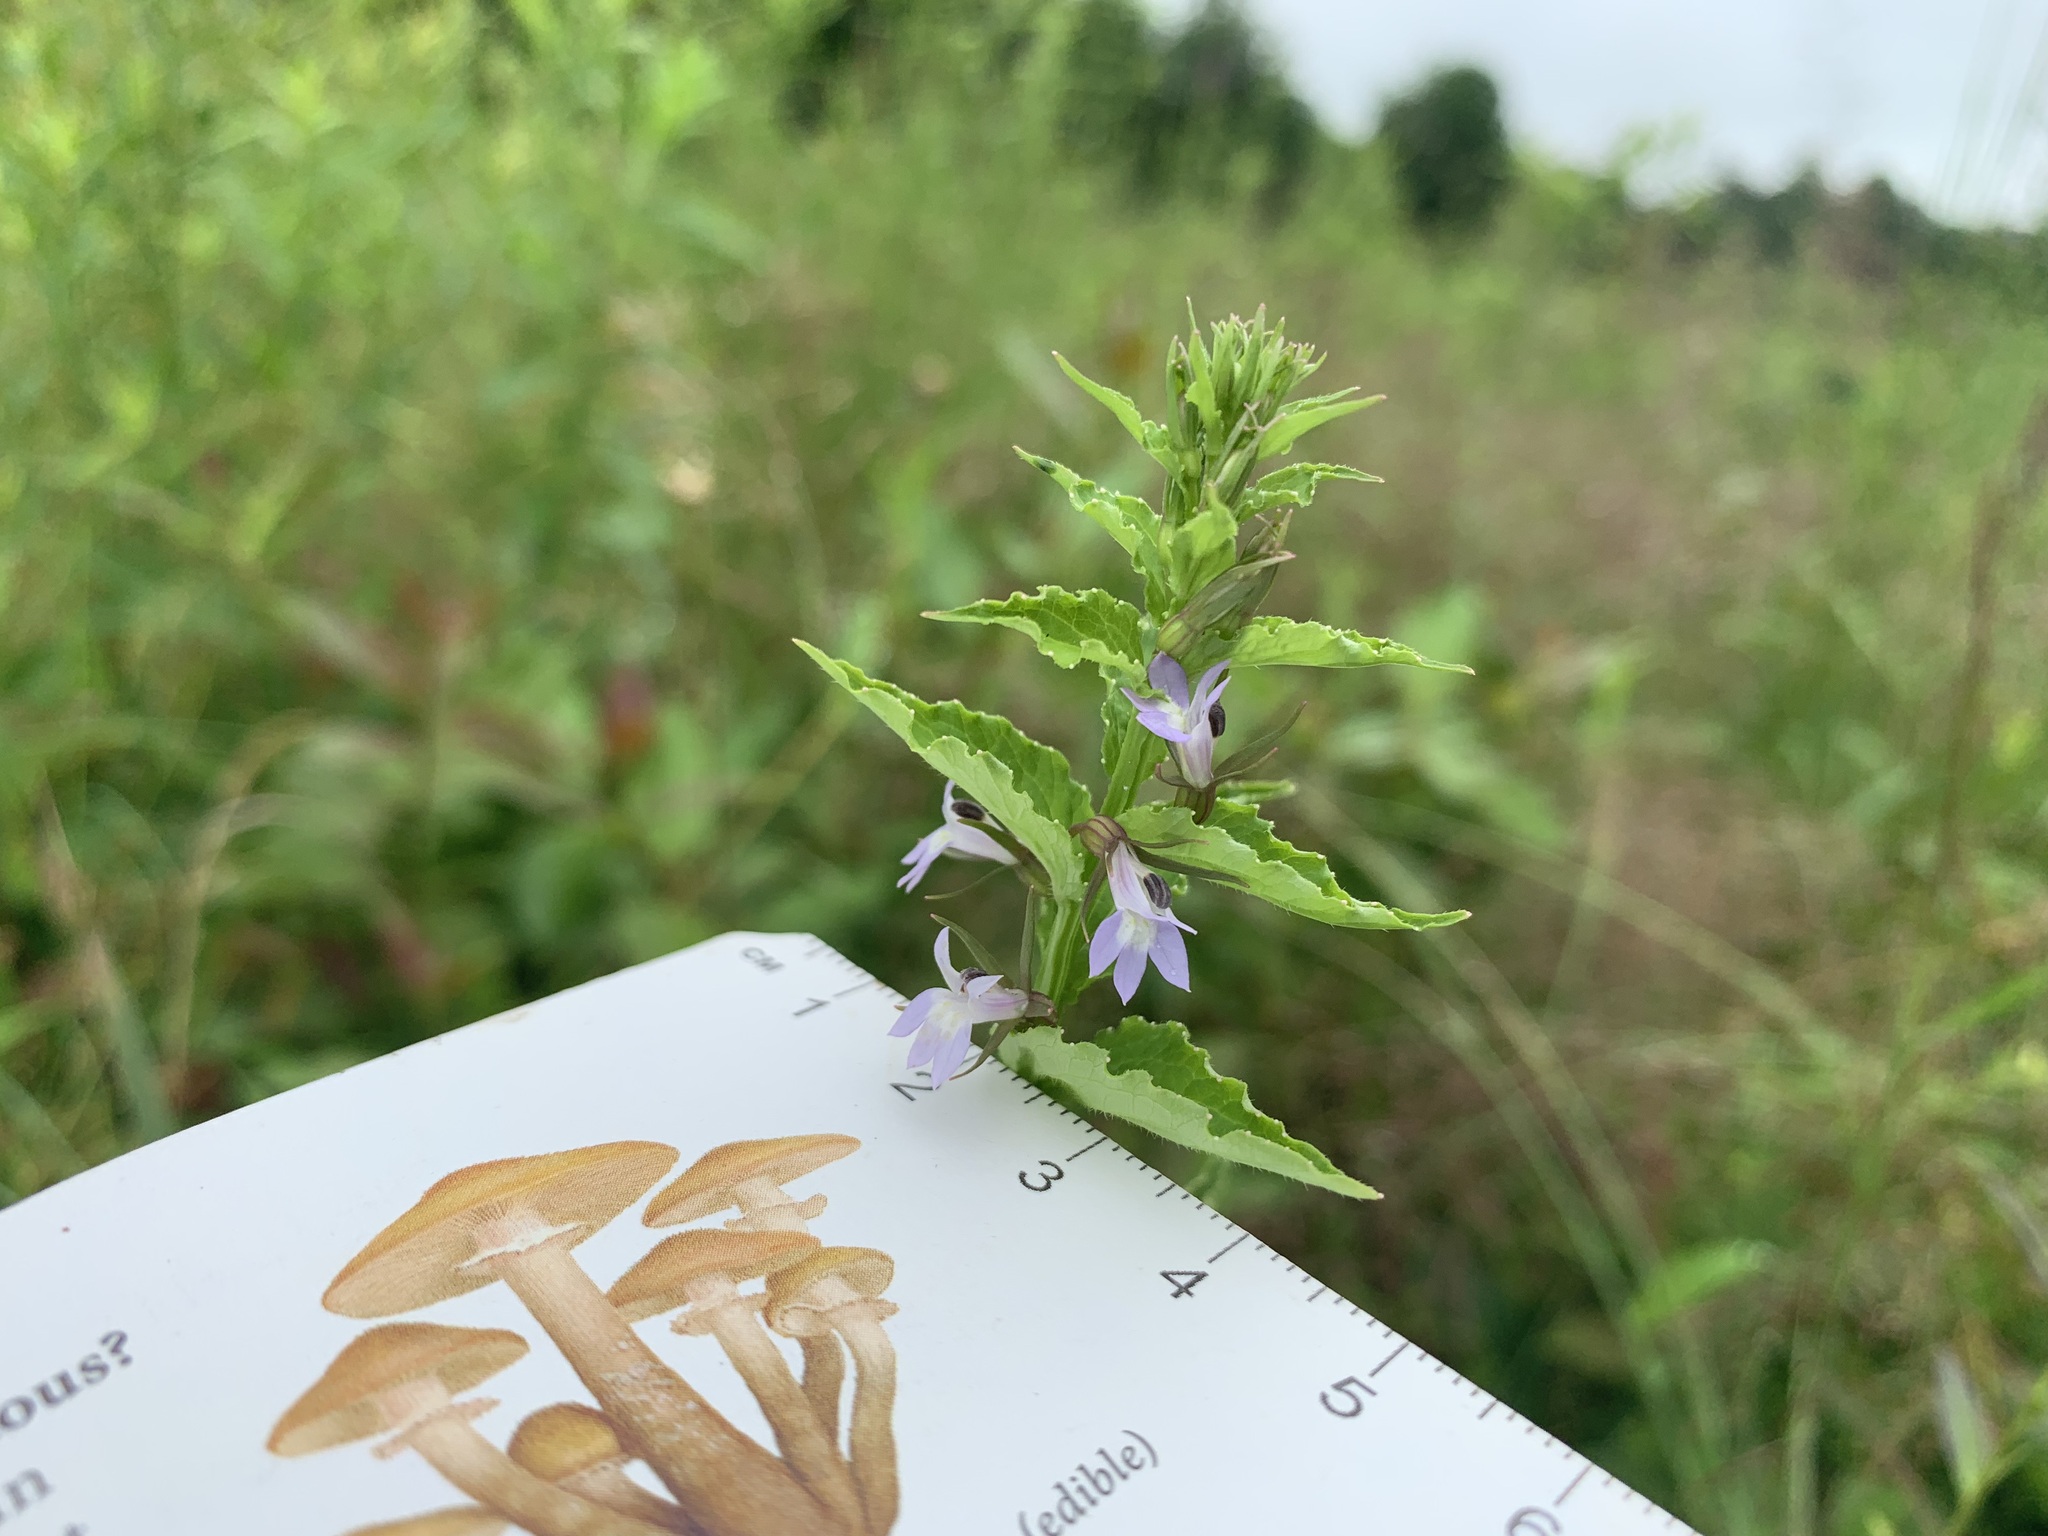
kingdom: Plantae
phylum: Tracheophyta
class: Magnoliopsida
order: Asterales
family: Campanulaceae
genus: Lobelia
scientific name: Lobelia inflata
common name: Indian tobacco
